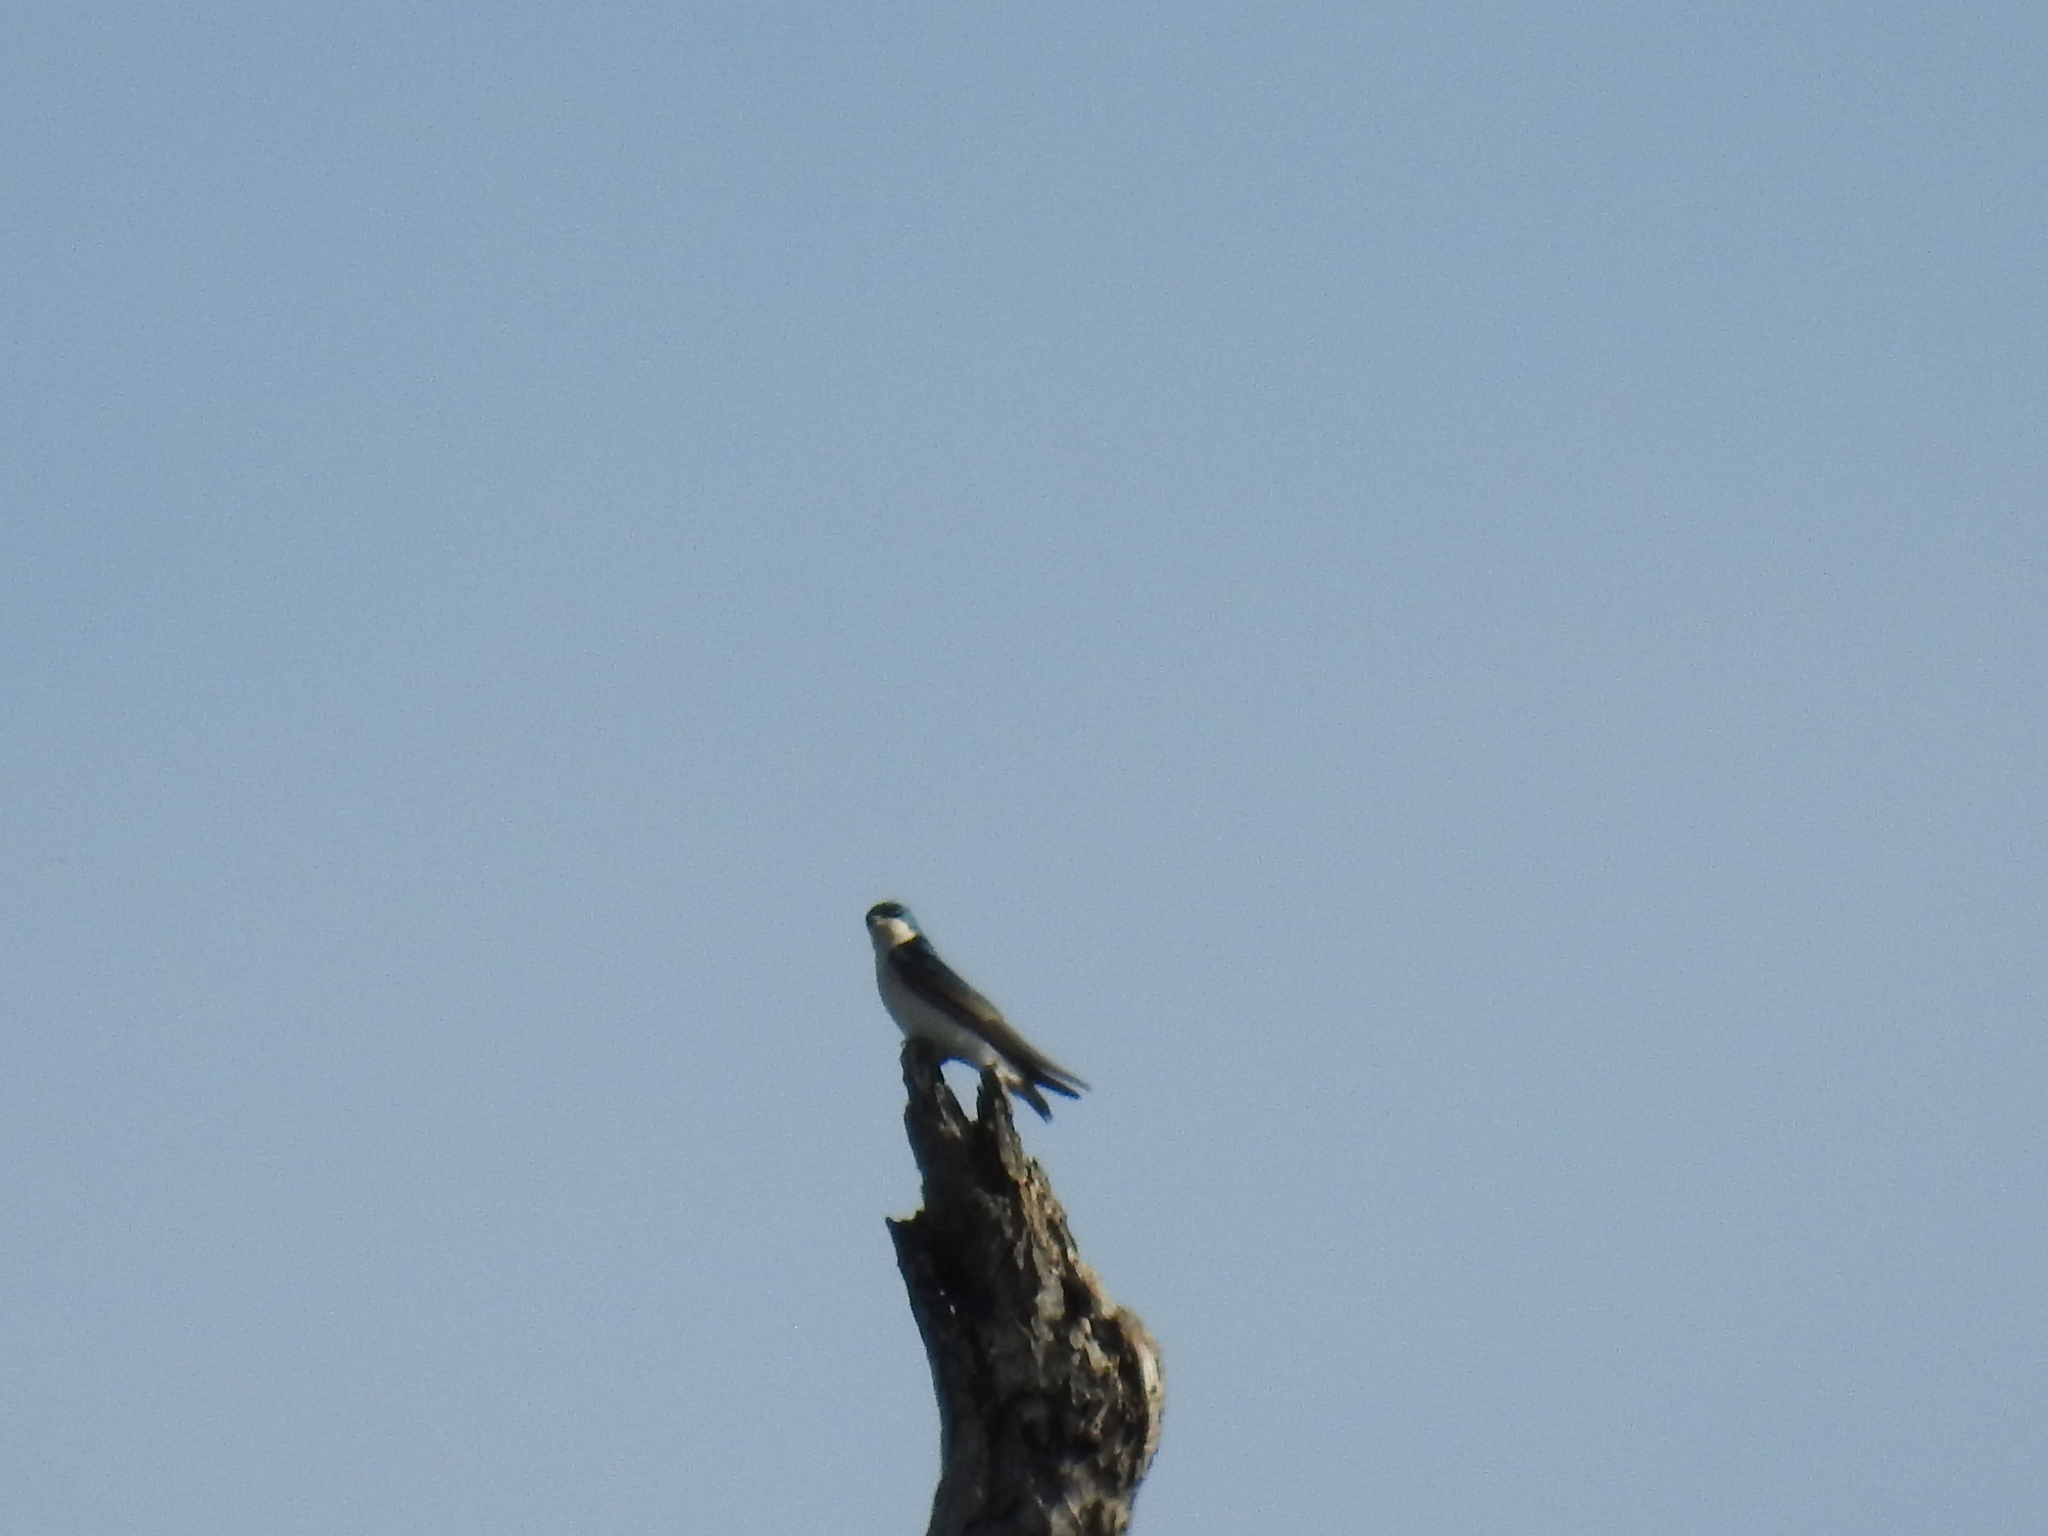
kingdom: Animalia
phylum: Chordata
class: Aves
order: Passeriformes
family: Hirundinidae
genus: Tachycineta
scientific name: Tachycineta bicolor
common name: Tree swallow
